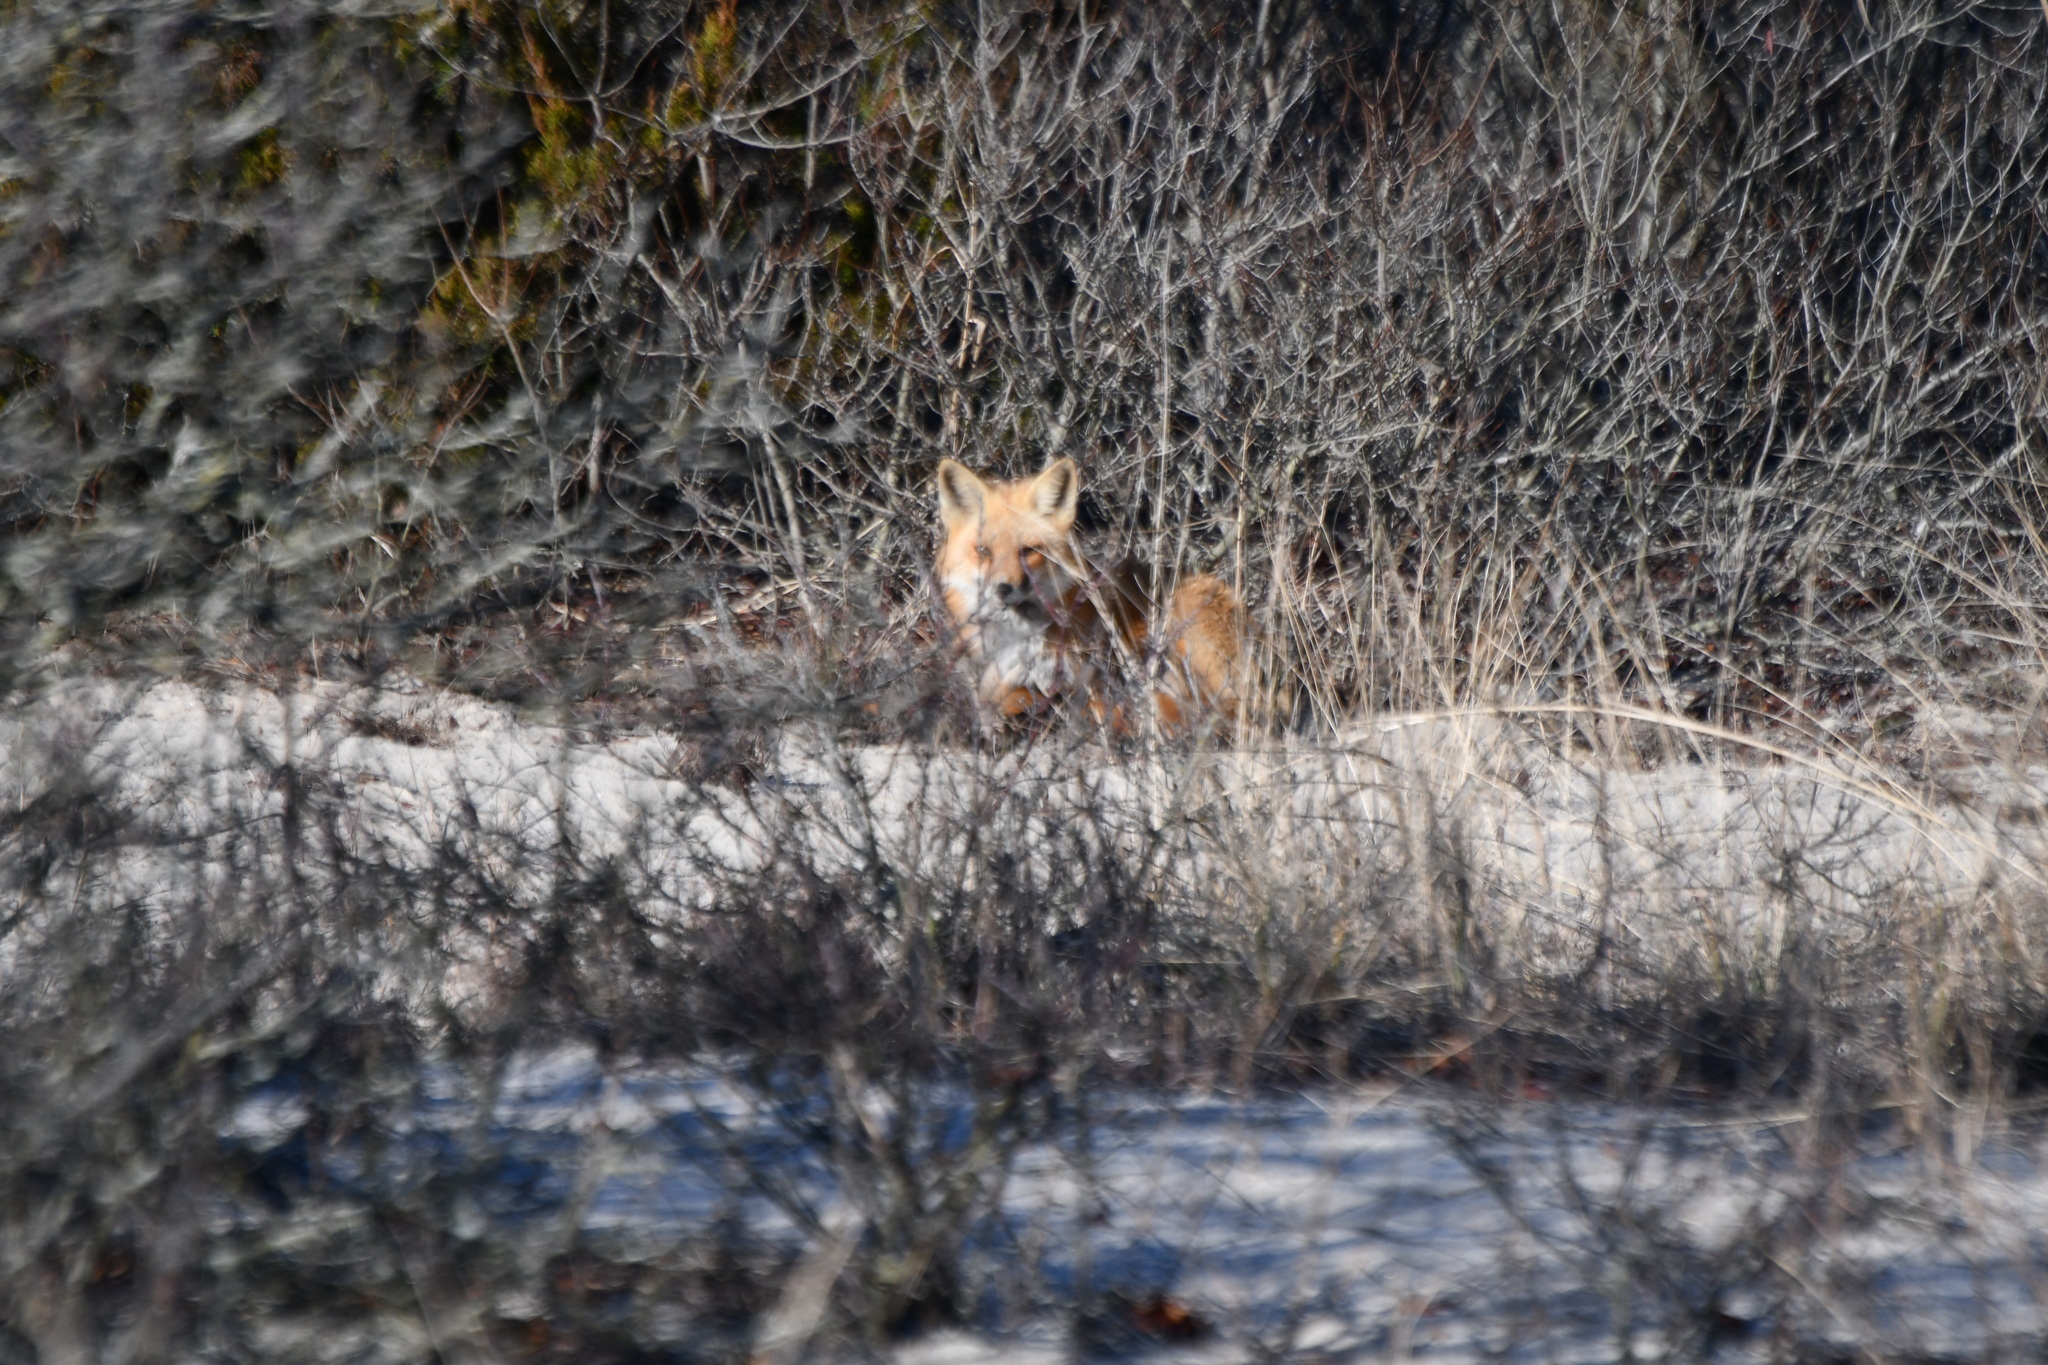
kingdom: Animalia
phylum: Chordata
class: Mammalia
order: Carnivora
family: Canidae
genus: Vulpes
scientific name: Vulpes vulpes
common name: Red fox
